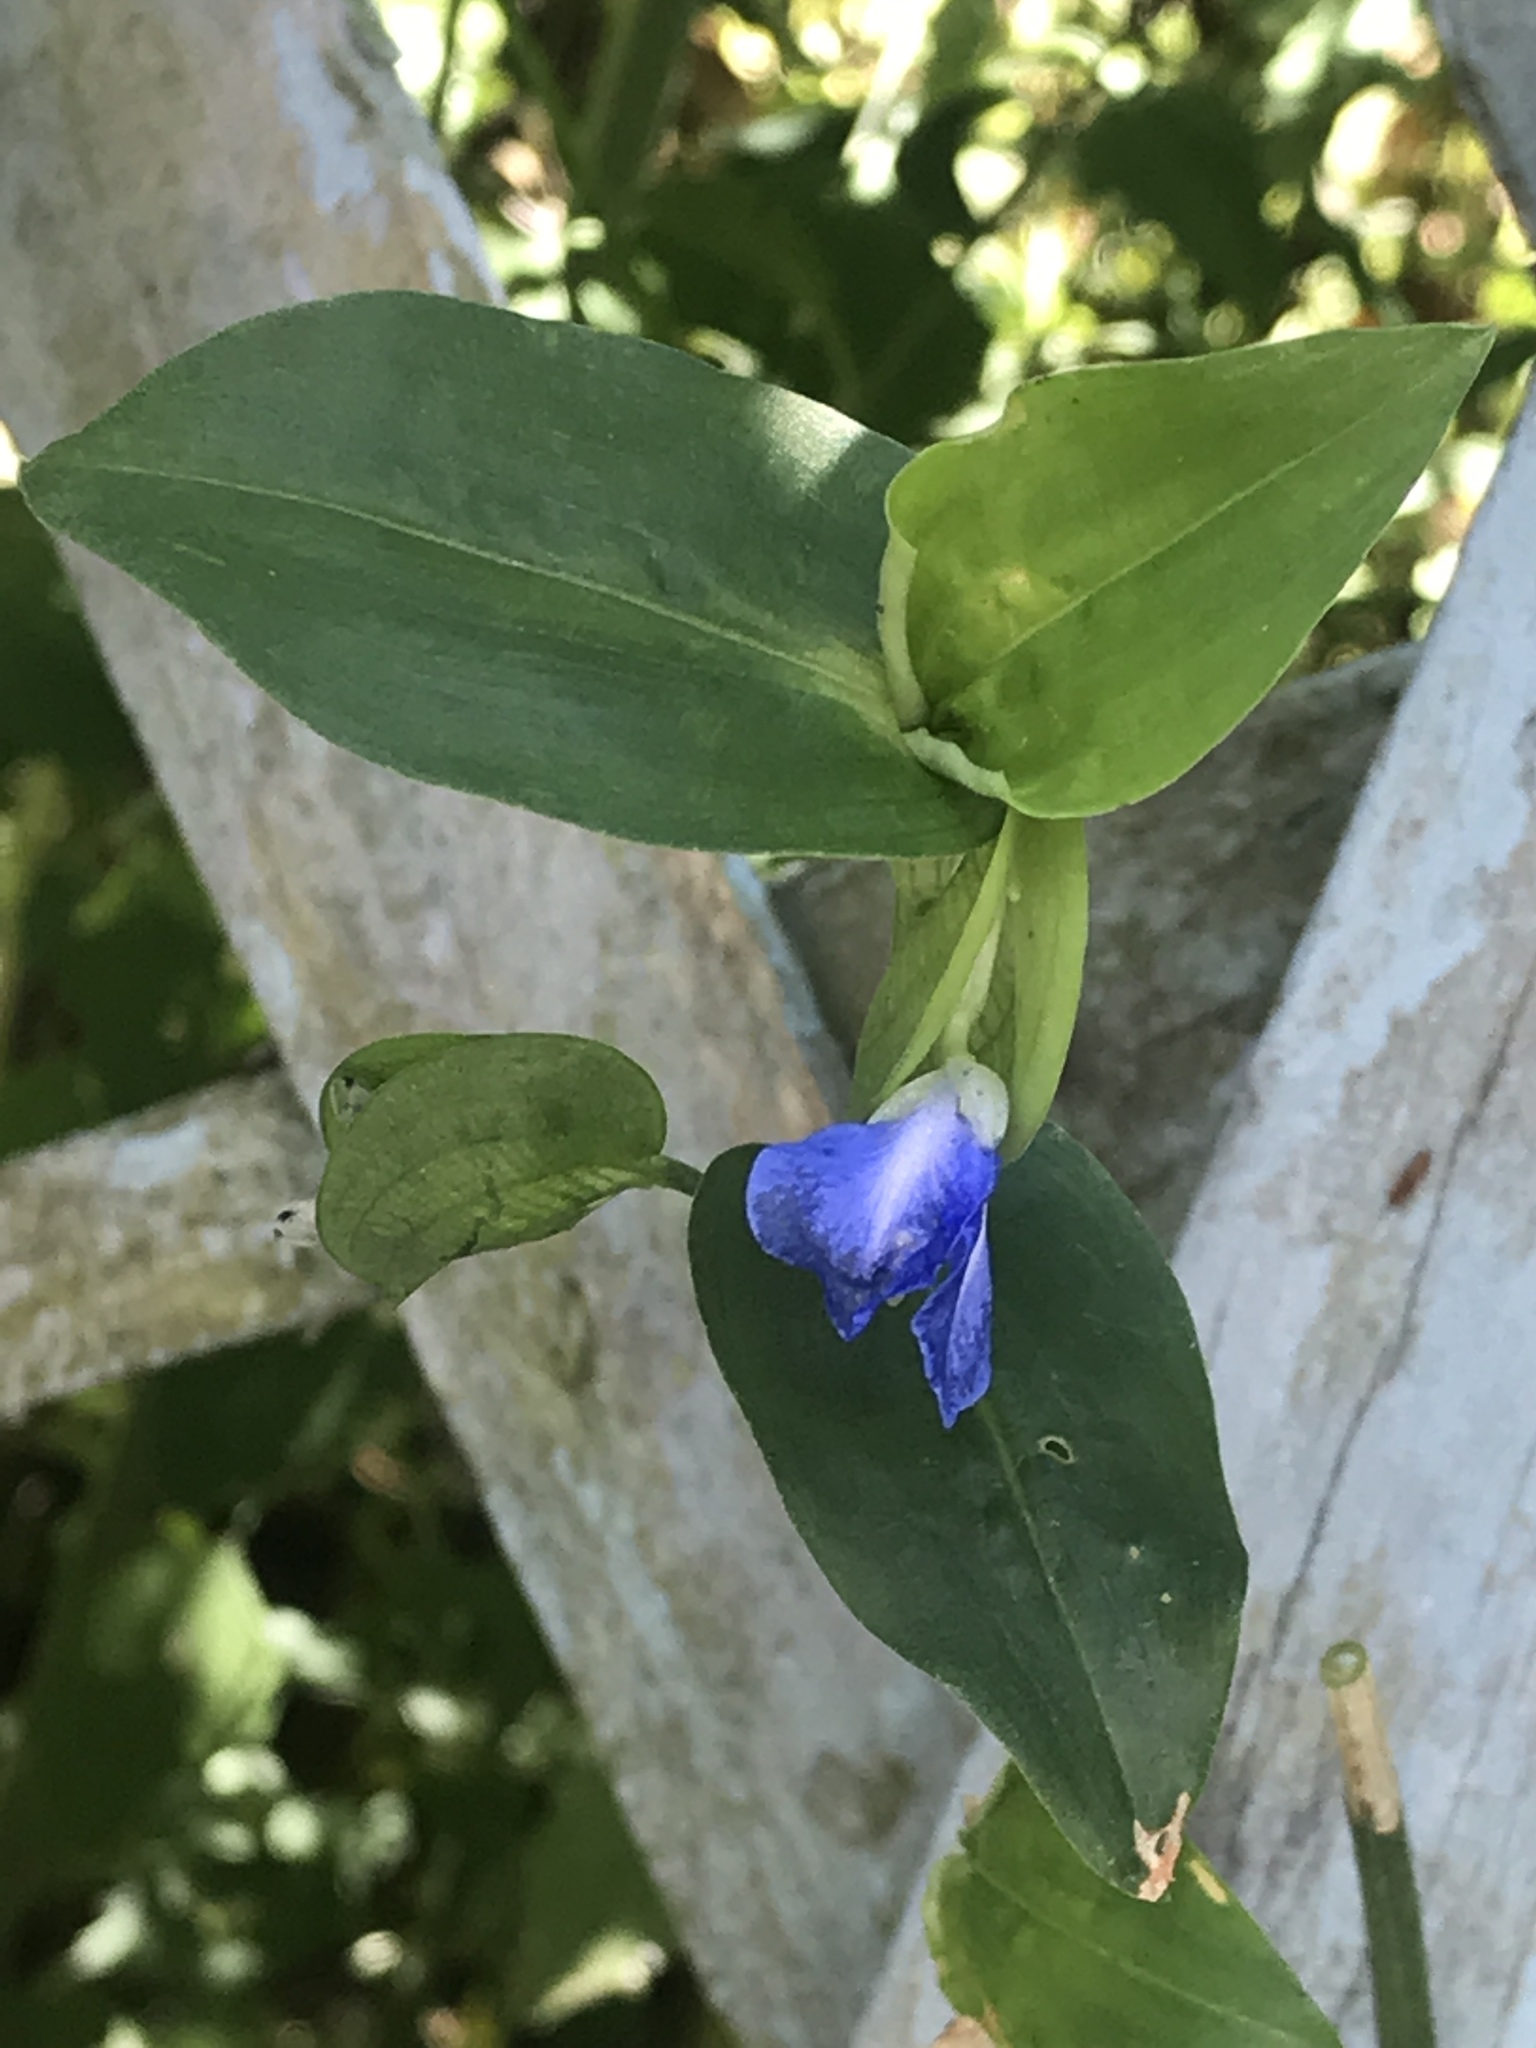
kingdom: Plantae
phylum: Tracheophyta
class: Liliopsida
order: Commelinales
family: Commelinaceae
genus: Commelina
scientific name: Commelina communis
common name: Asiatic dayflower
